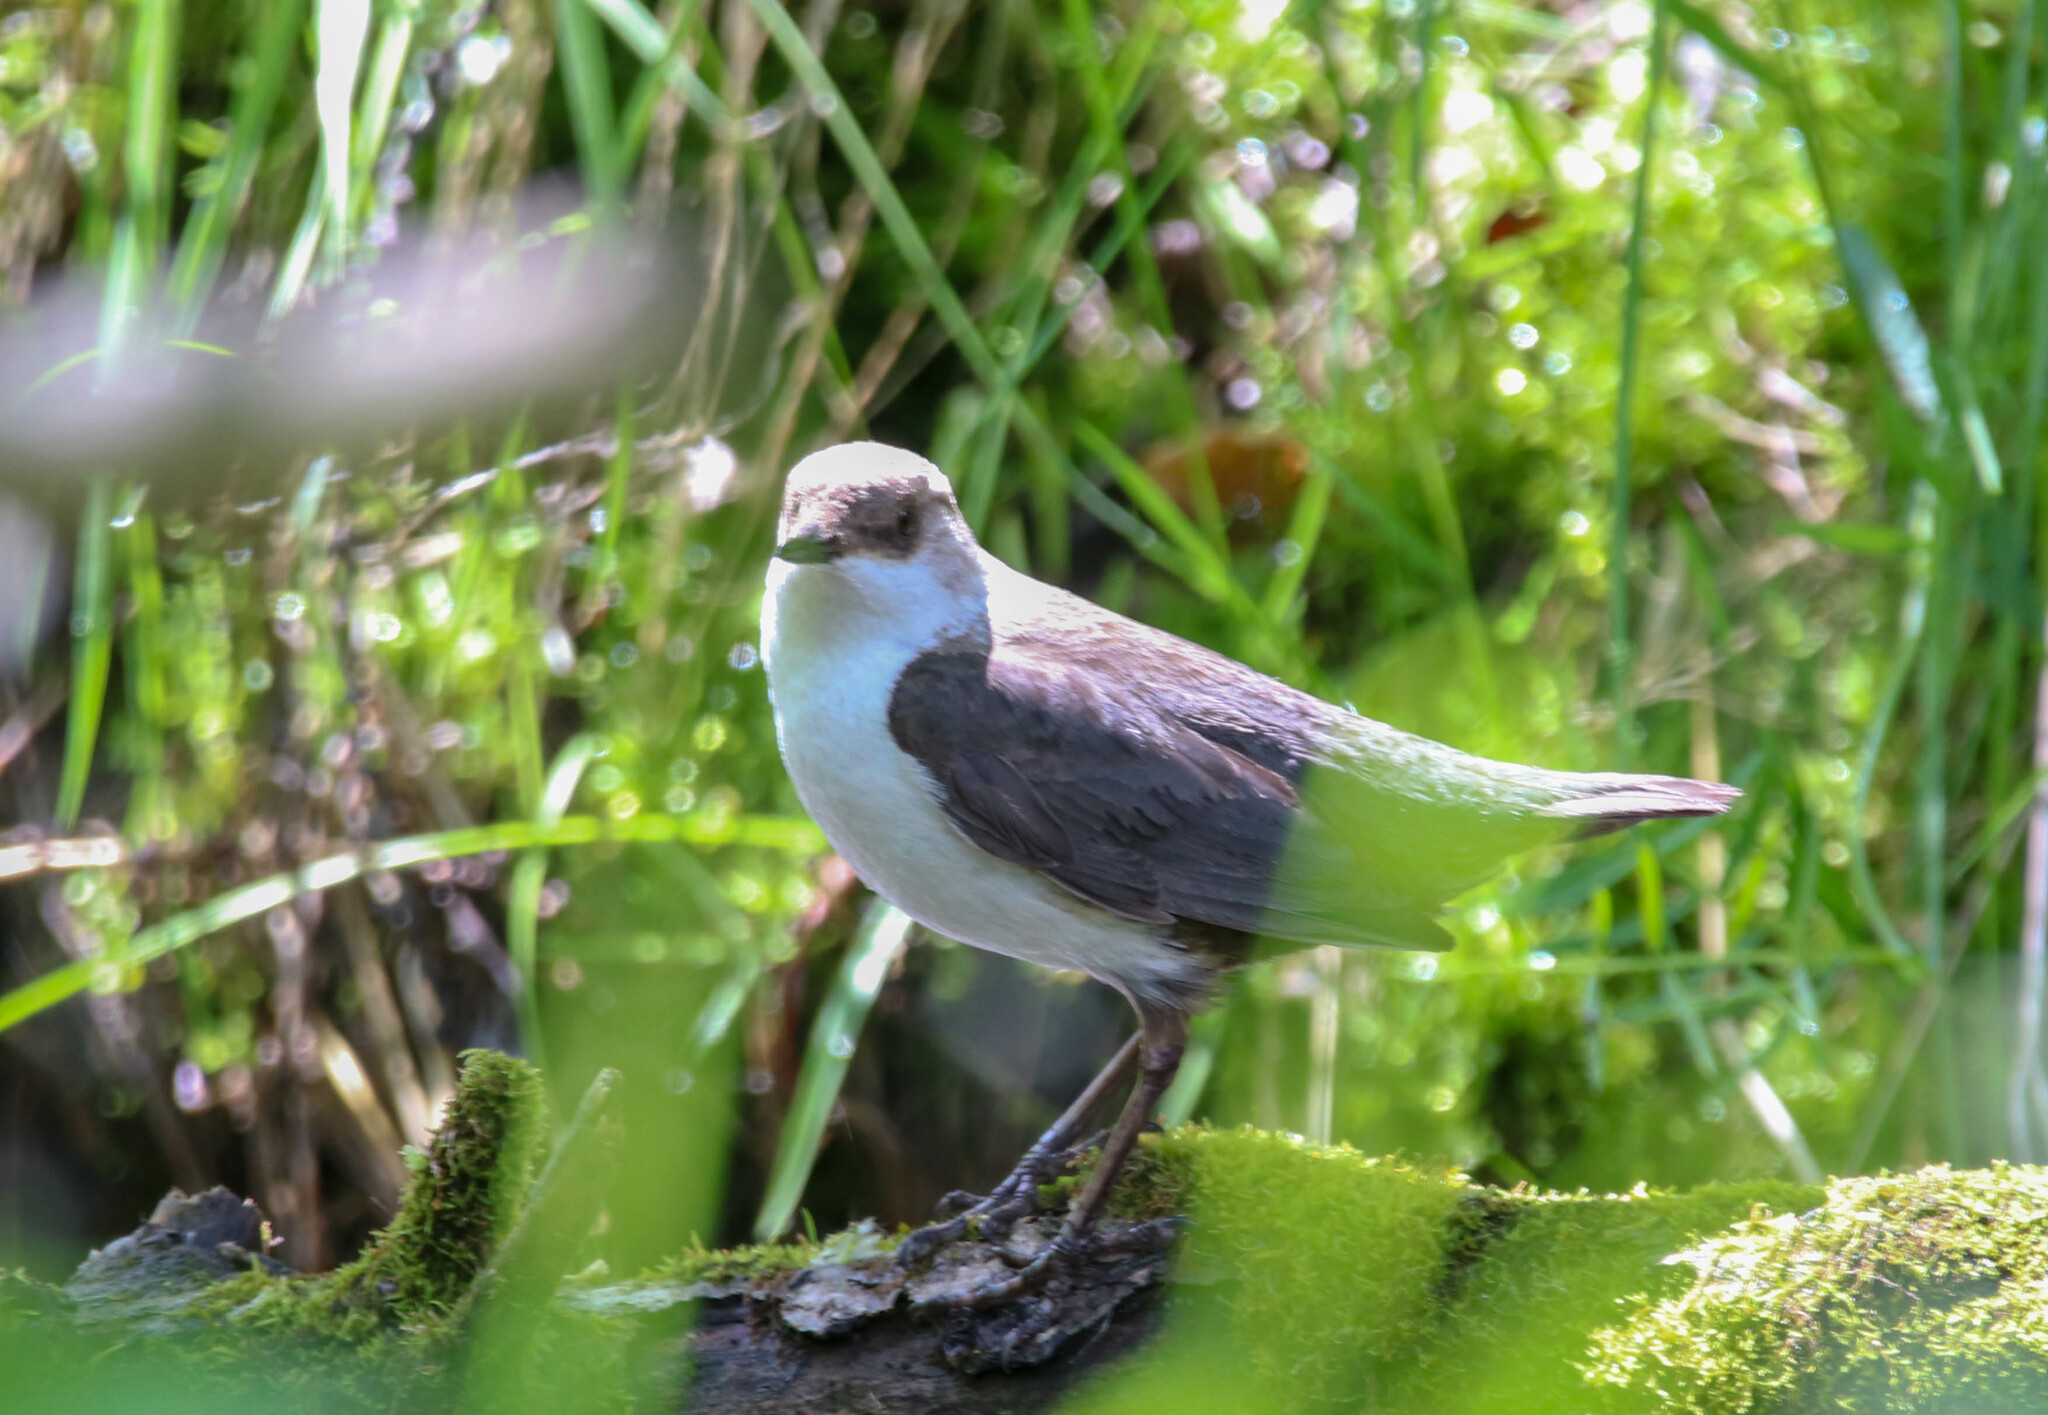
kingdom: Animalia
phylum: Chordata
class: Aves
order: Passeriformes
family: Cinclidae
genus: Cinclus
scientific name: Cinclus cinclus
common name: White-throated dipper
